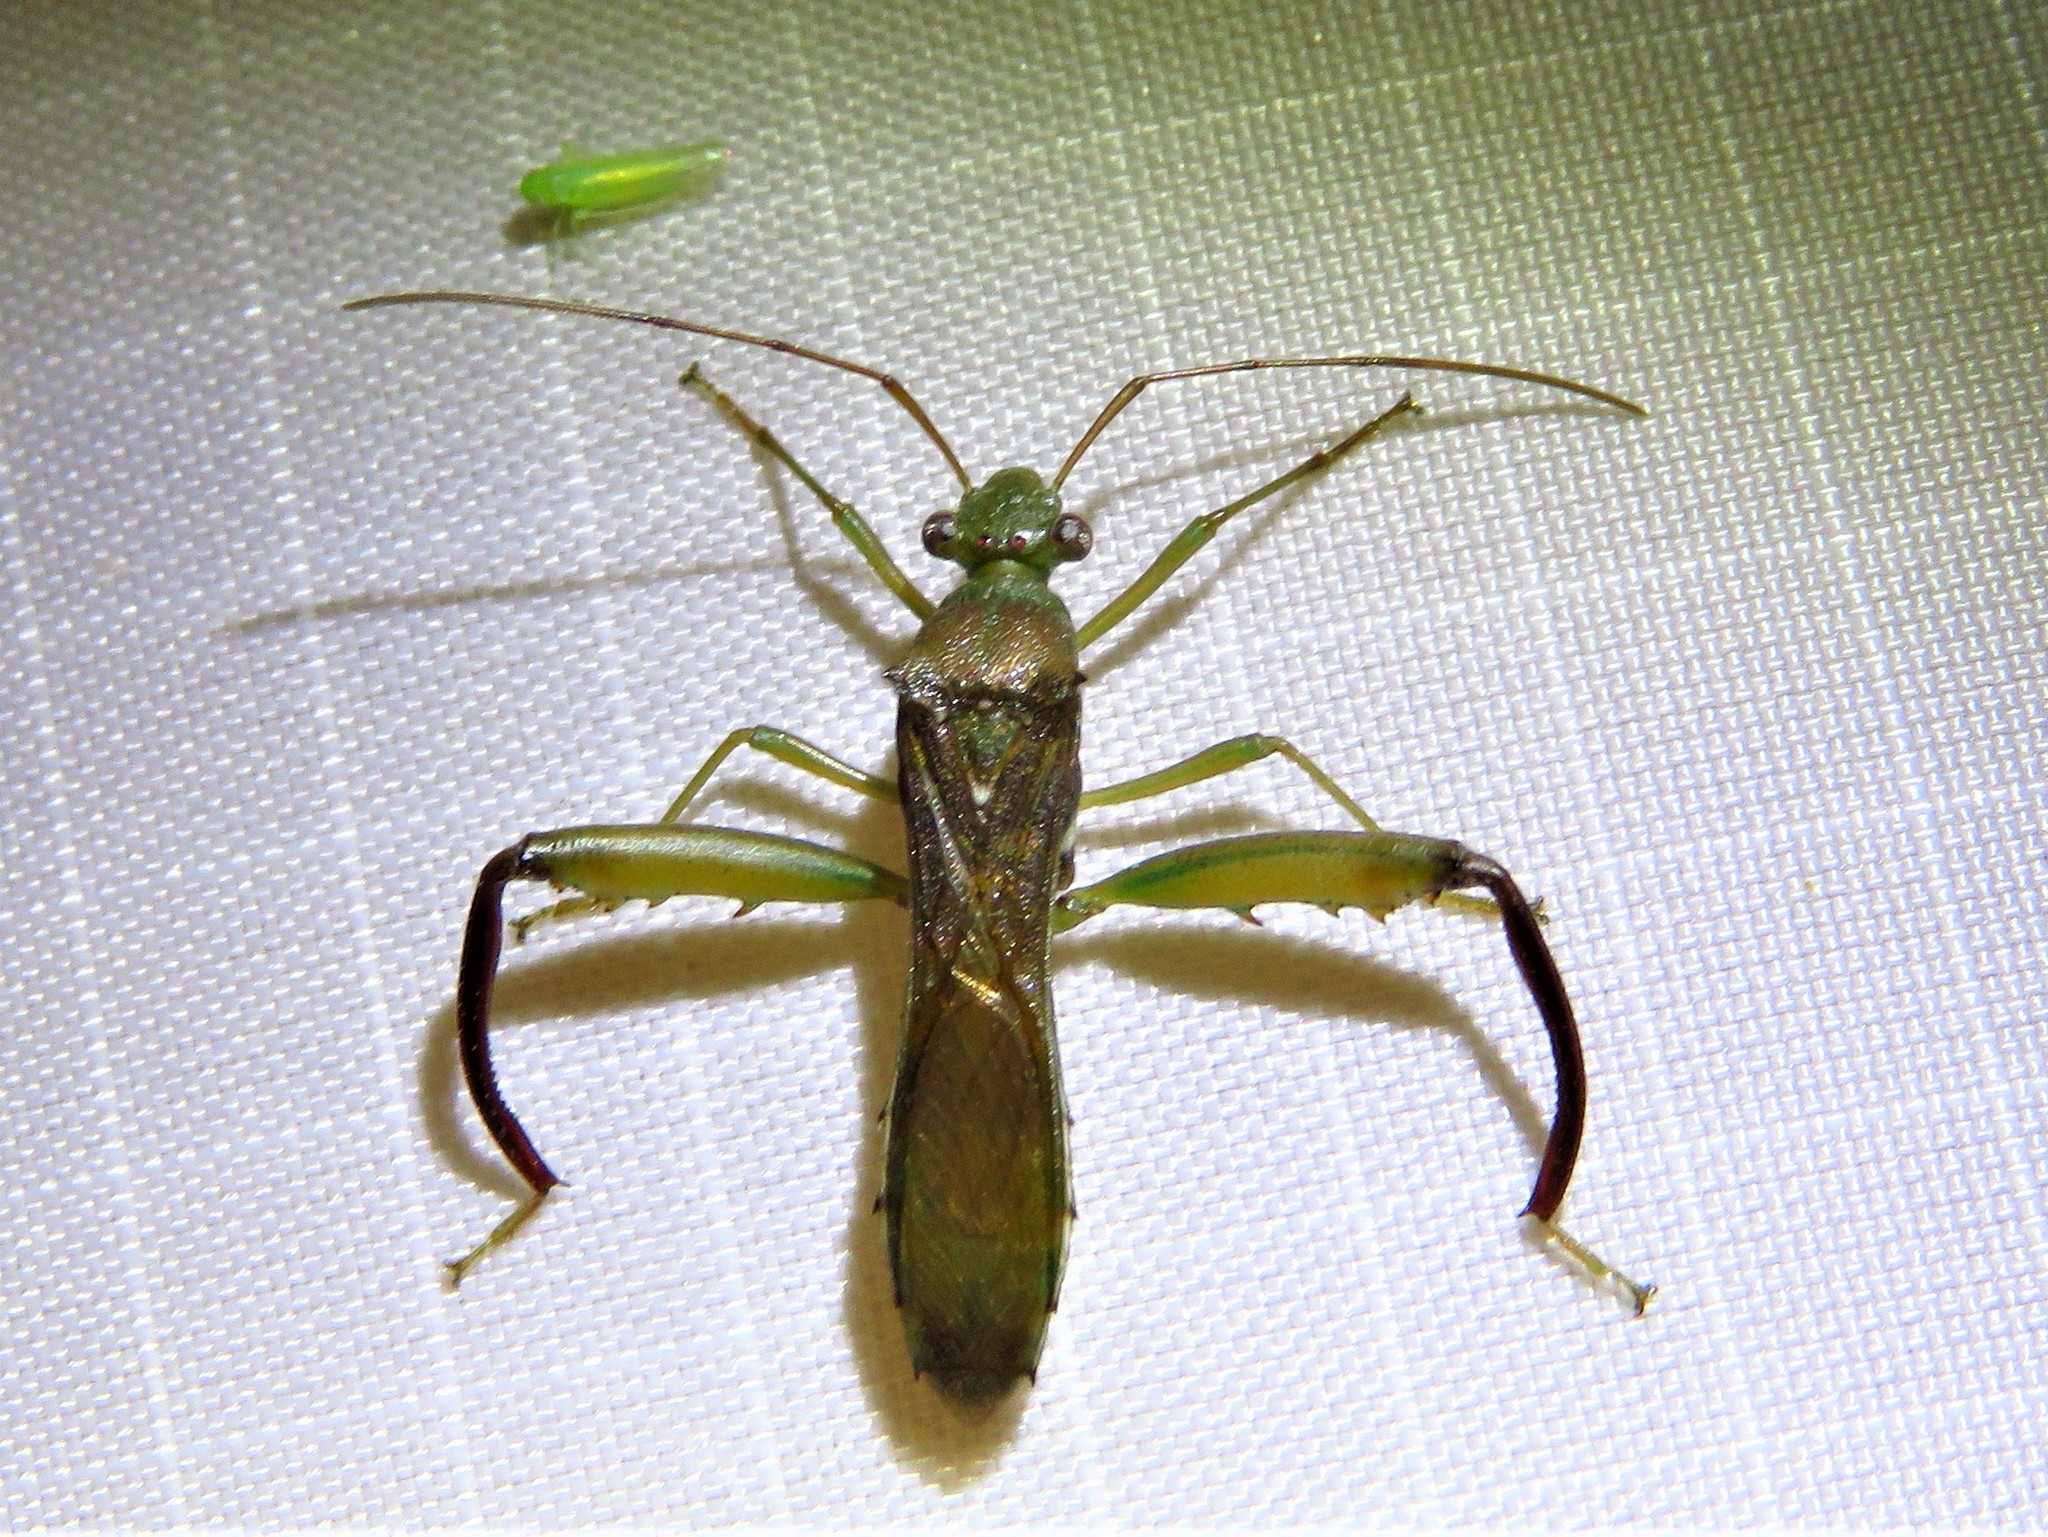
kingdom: Animalia
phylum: Arthropoda
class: Insecta
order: Hemiptera
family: Alydidae
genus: Hyalymenus
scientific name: Hyalymenus tarsatus
